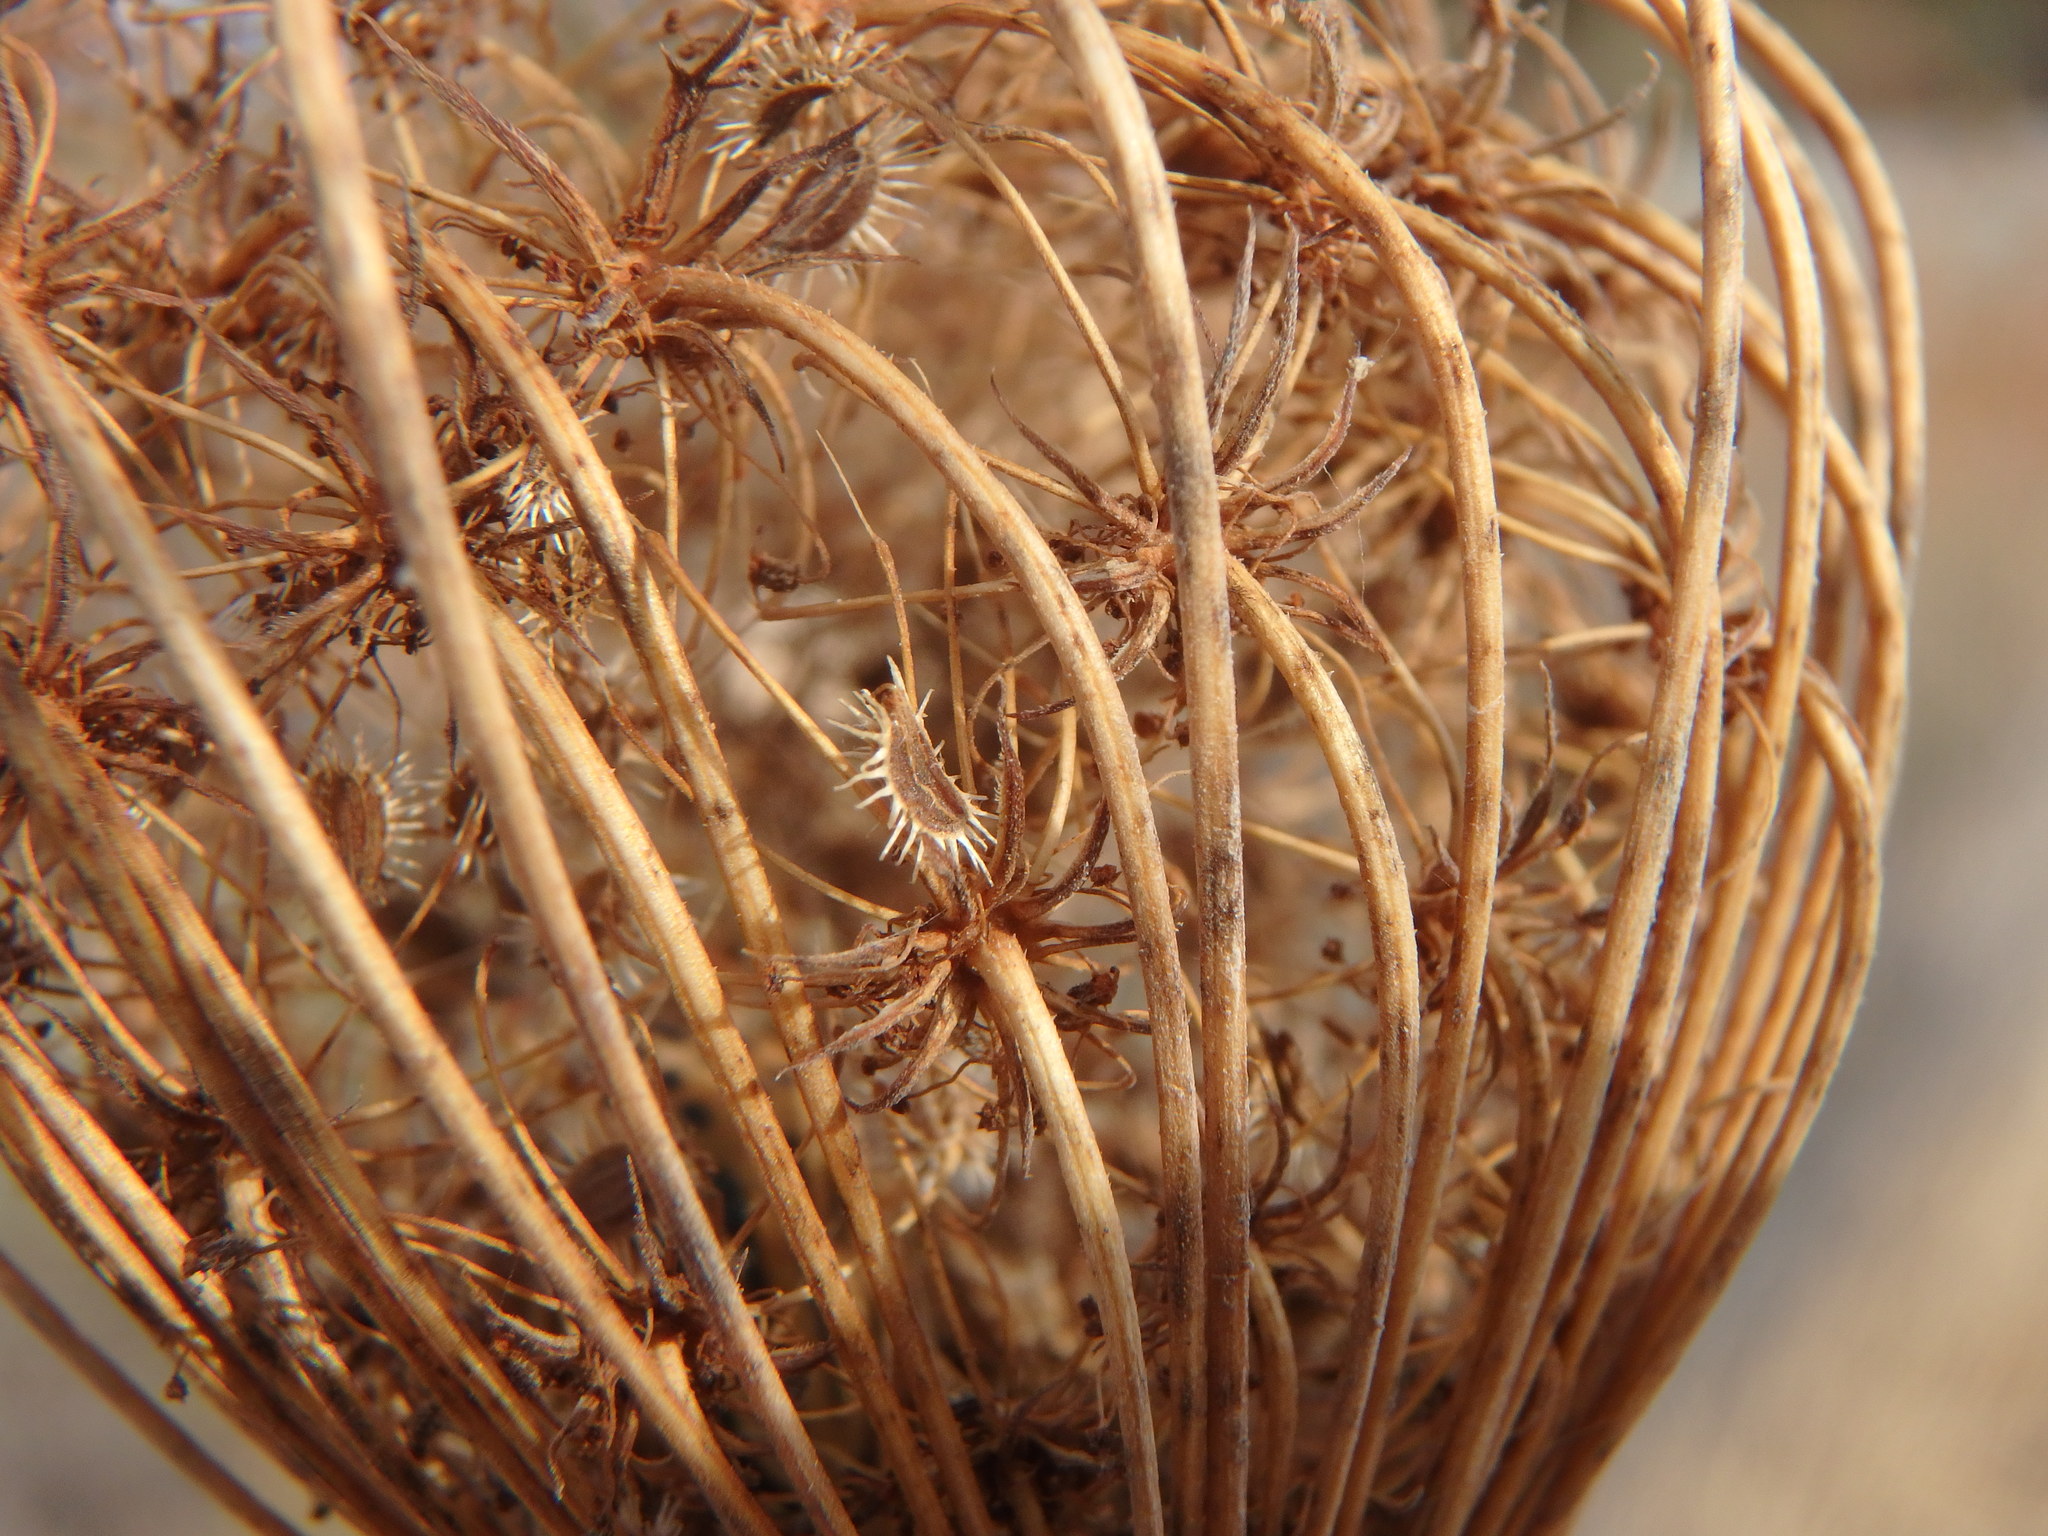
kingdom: Plantae
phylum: Tracheophyta
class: Magnoliopsida
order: Apiales
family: Apiaceae
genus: Daucus
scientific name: Daucus carota
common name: Wild carrot
